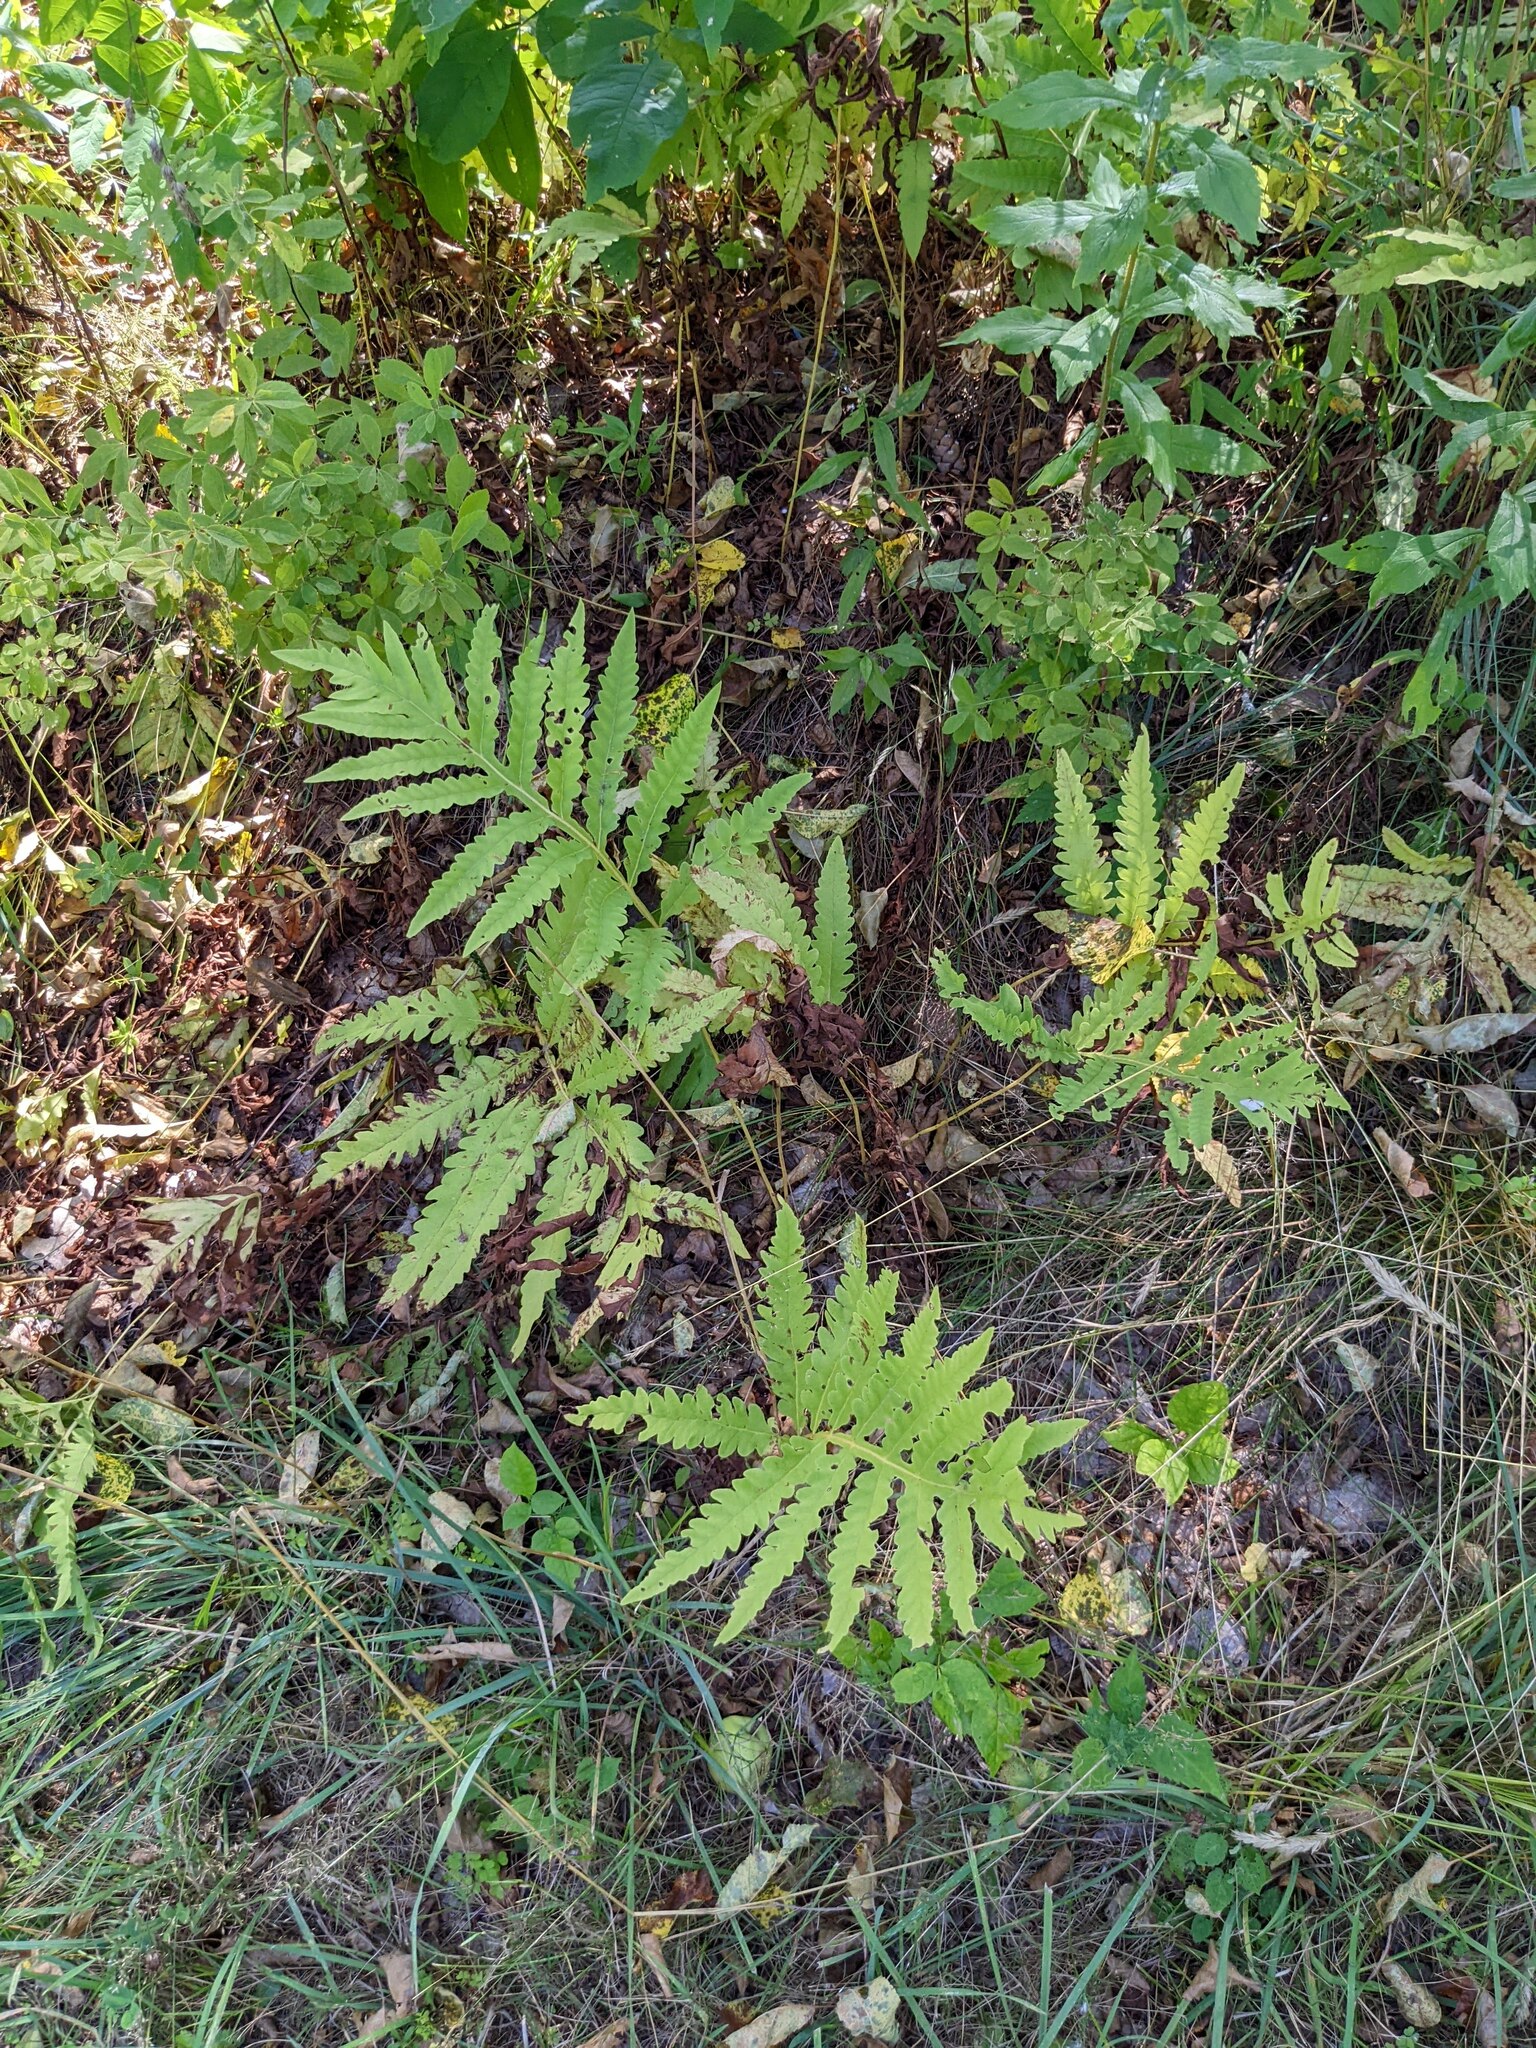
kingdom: Plantae
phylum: Tracheophyta
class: Polypodiopsida
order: Polypodiales
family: Onocleaceae
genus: Onoclea
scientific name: Onoclea sensibilis
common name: Sensitive fern
